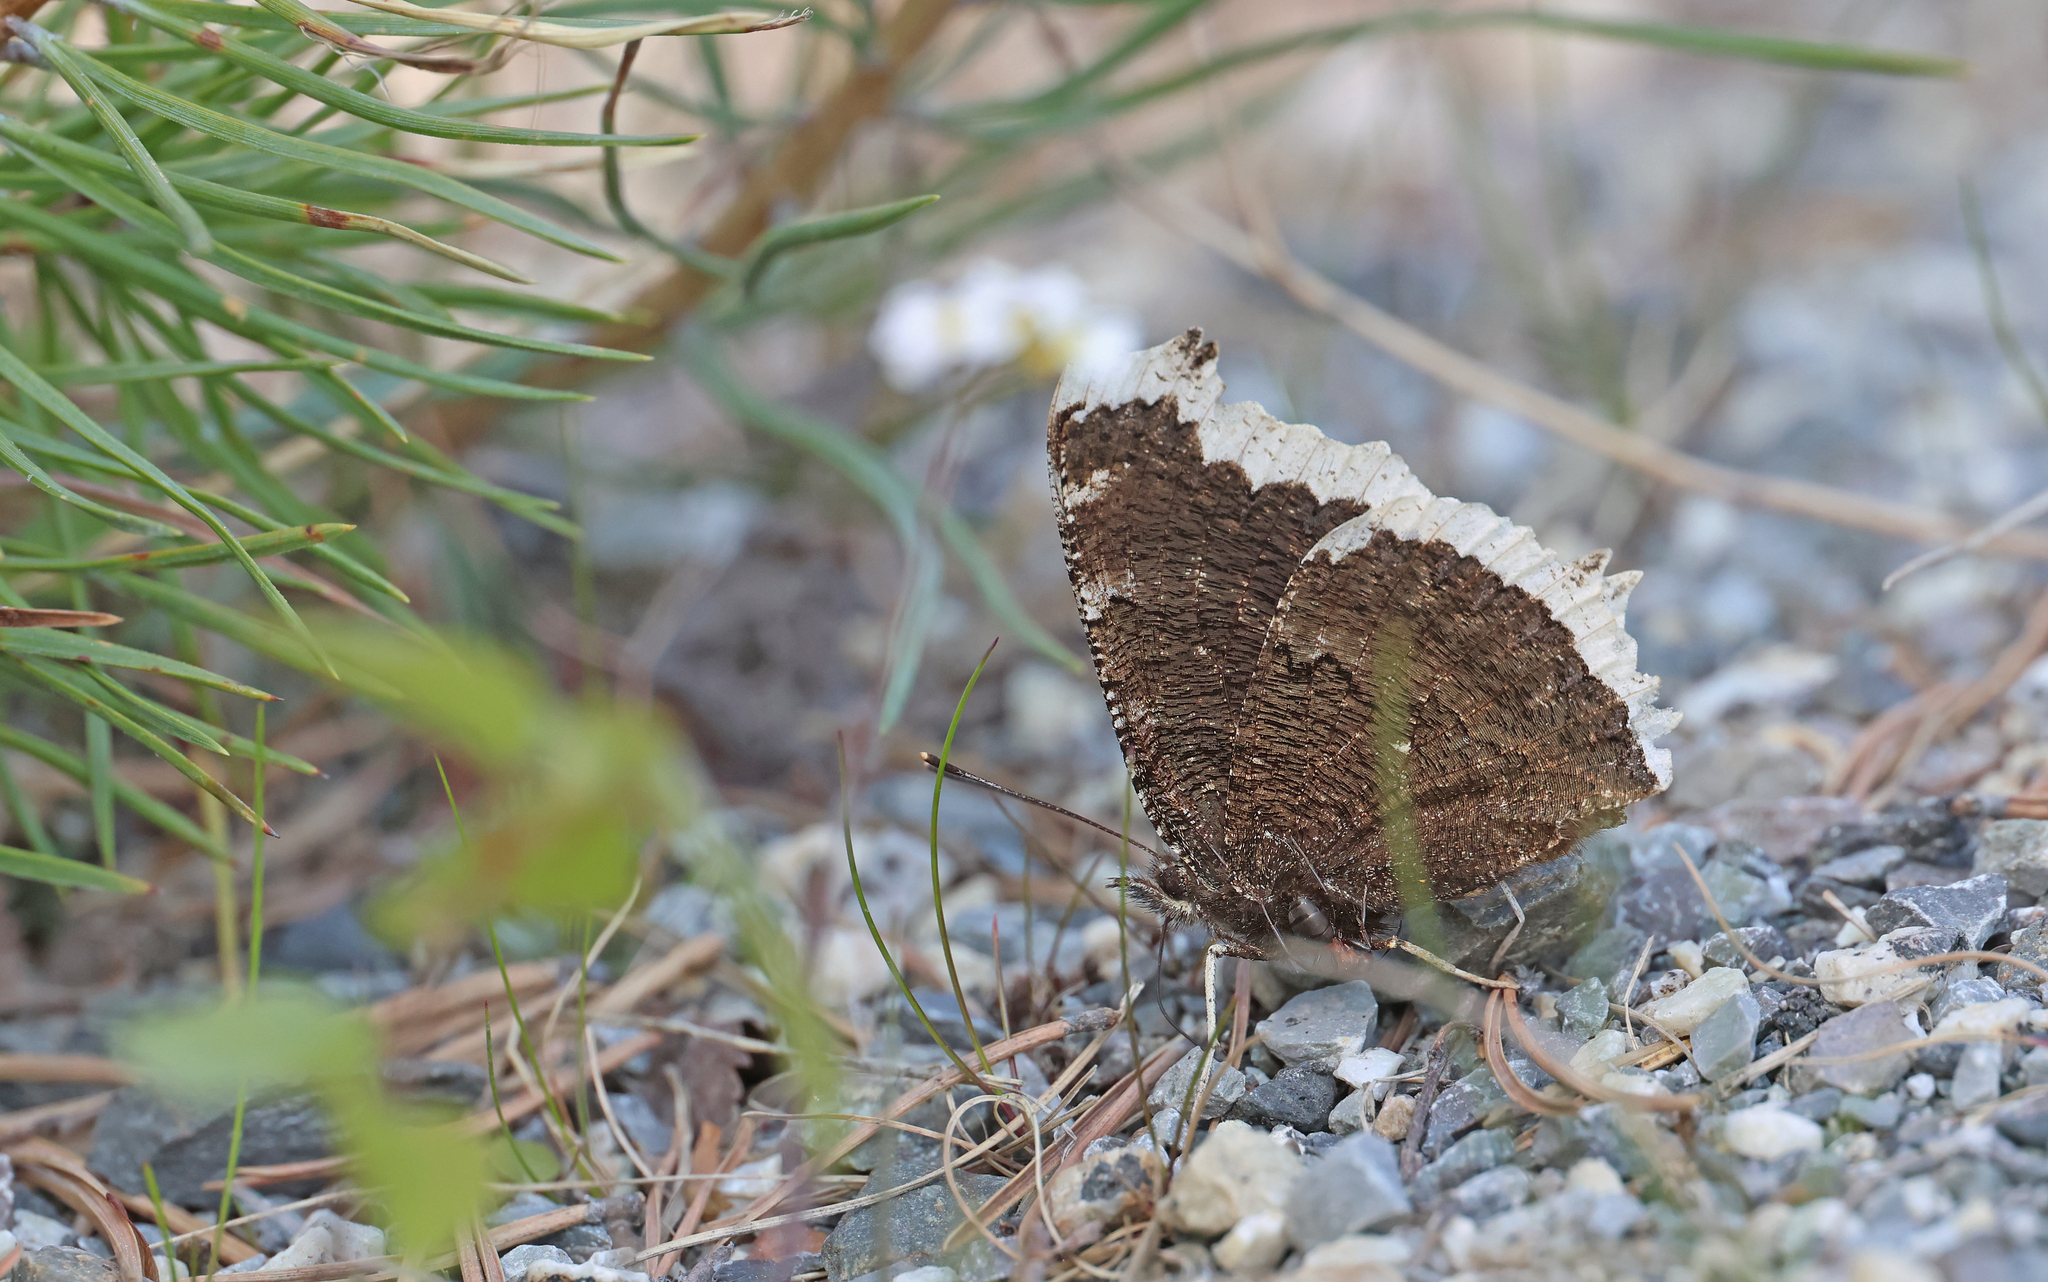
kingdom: Animalia
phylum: Arthropoda
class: Insecta
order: Lepidoptera
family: Nymphalidae
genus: Nymphalis
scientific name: Nymphalis antiopa
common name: Camberwell beauty
